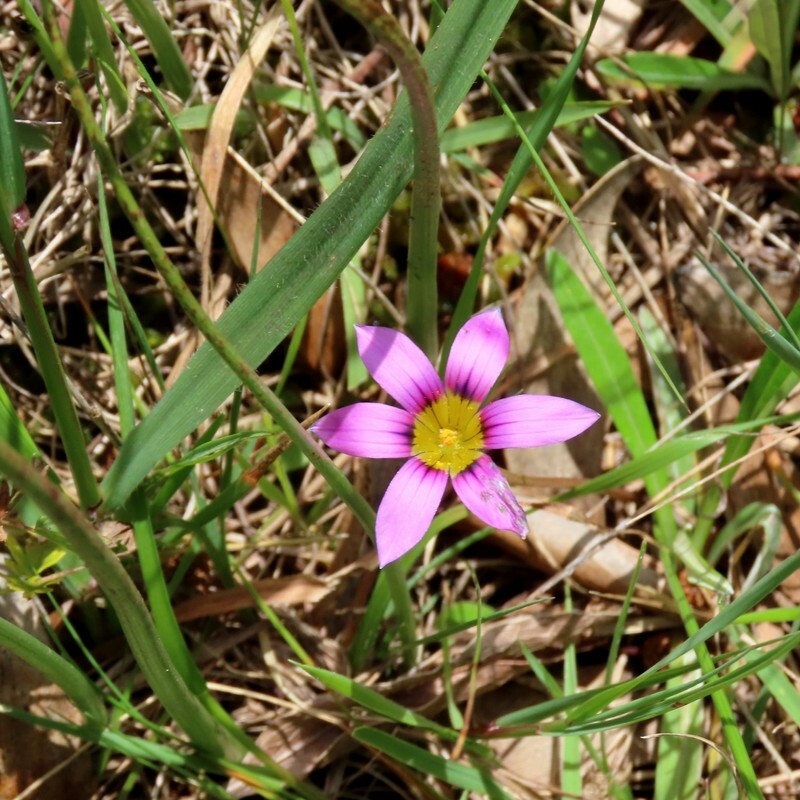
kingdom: Plantae
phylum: Tracheophyta
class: Liliopsida
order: Asparagales
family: Iridaceae
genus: Romulea
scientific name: Romulea rosea
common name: Oniongrass
